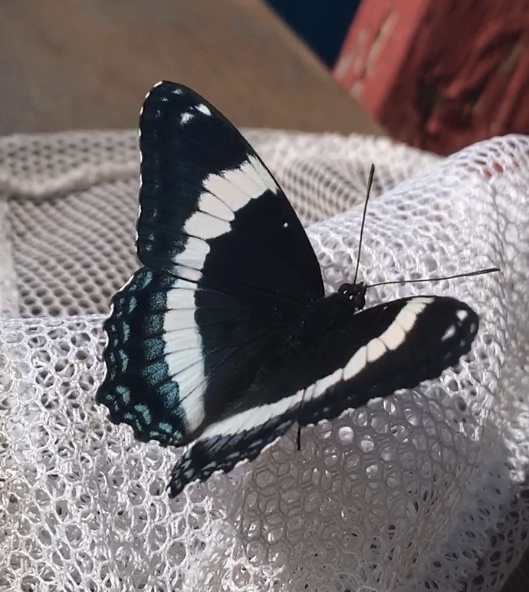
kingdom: Animalia
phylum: Arthropoda
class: Insecta
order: Lepidoptera
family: Nymphalidae
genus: Limenitis
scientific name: Limenitis arthemis
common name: Red-spotted admiral
